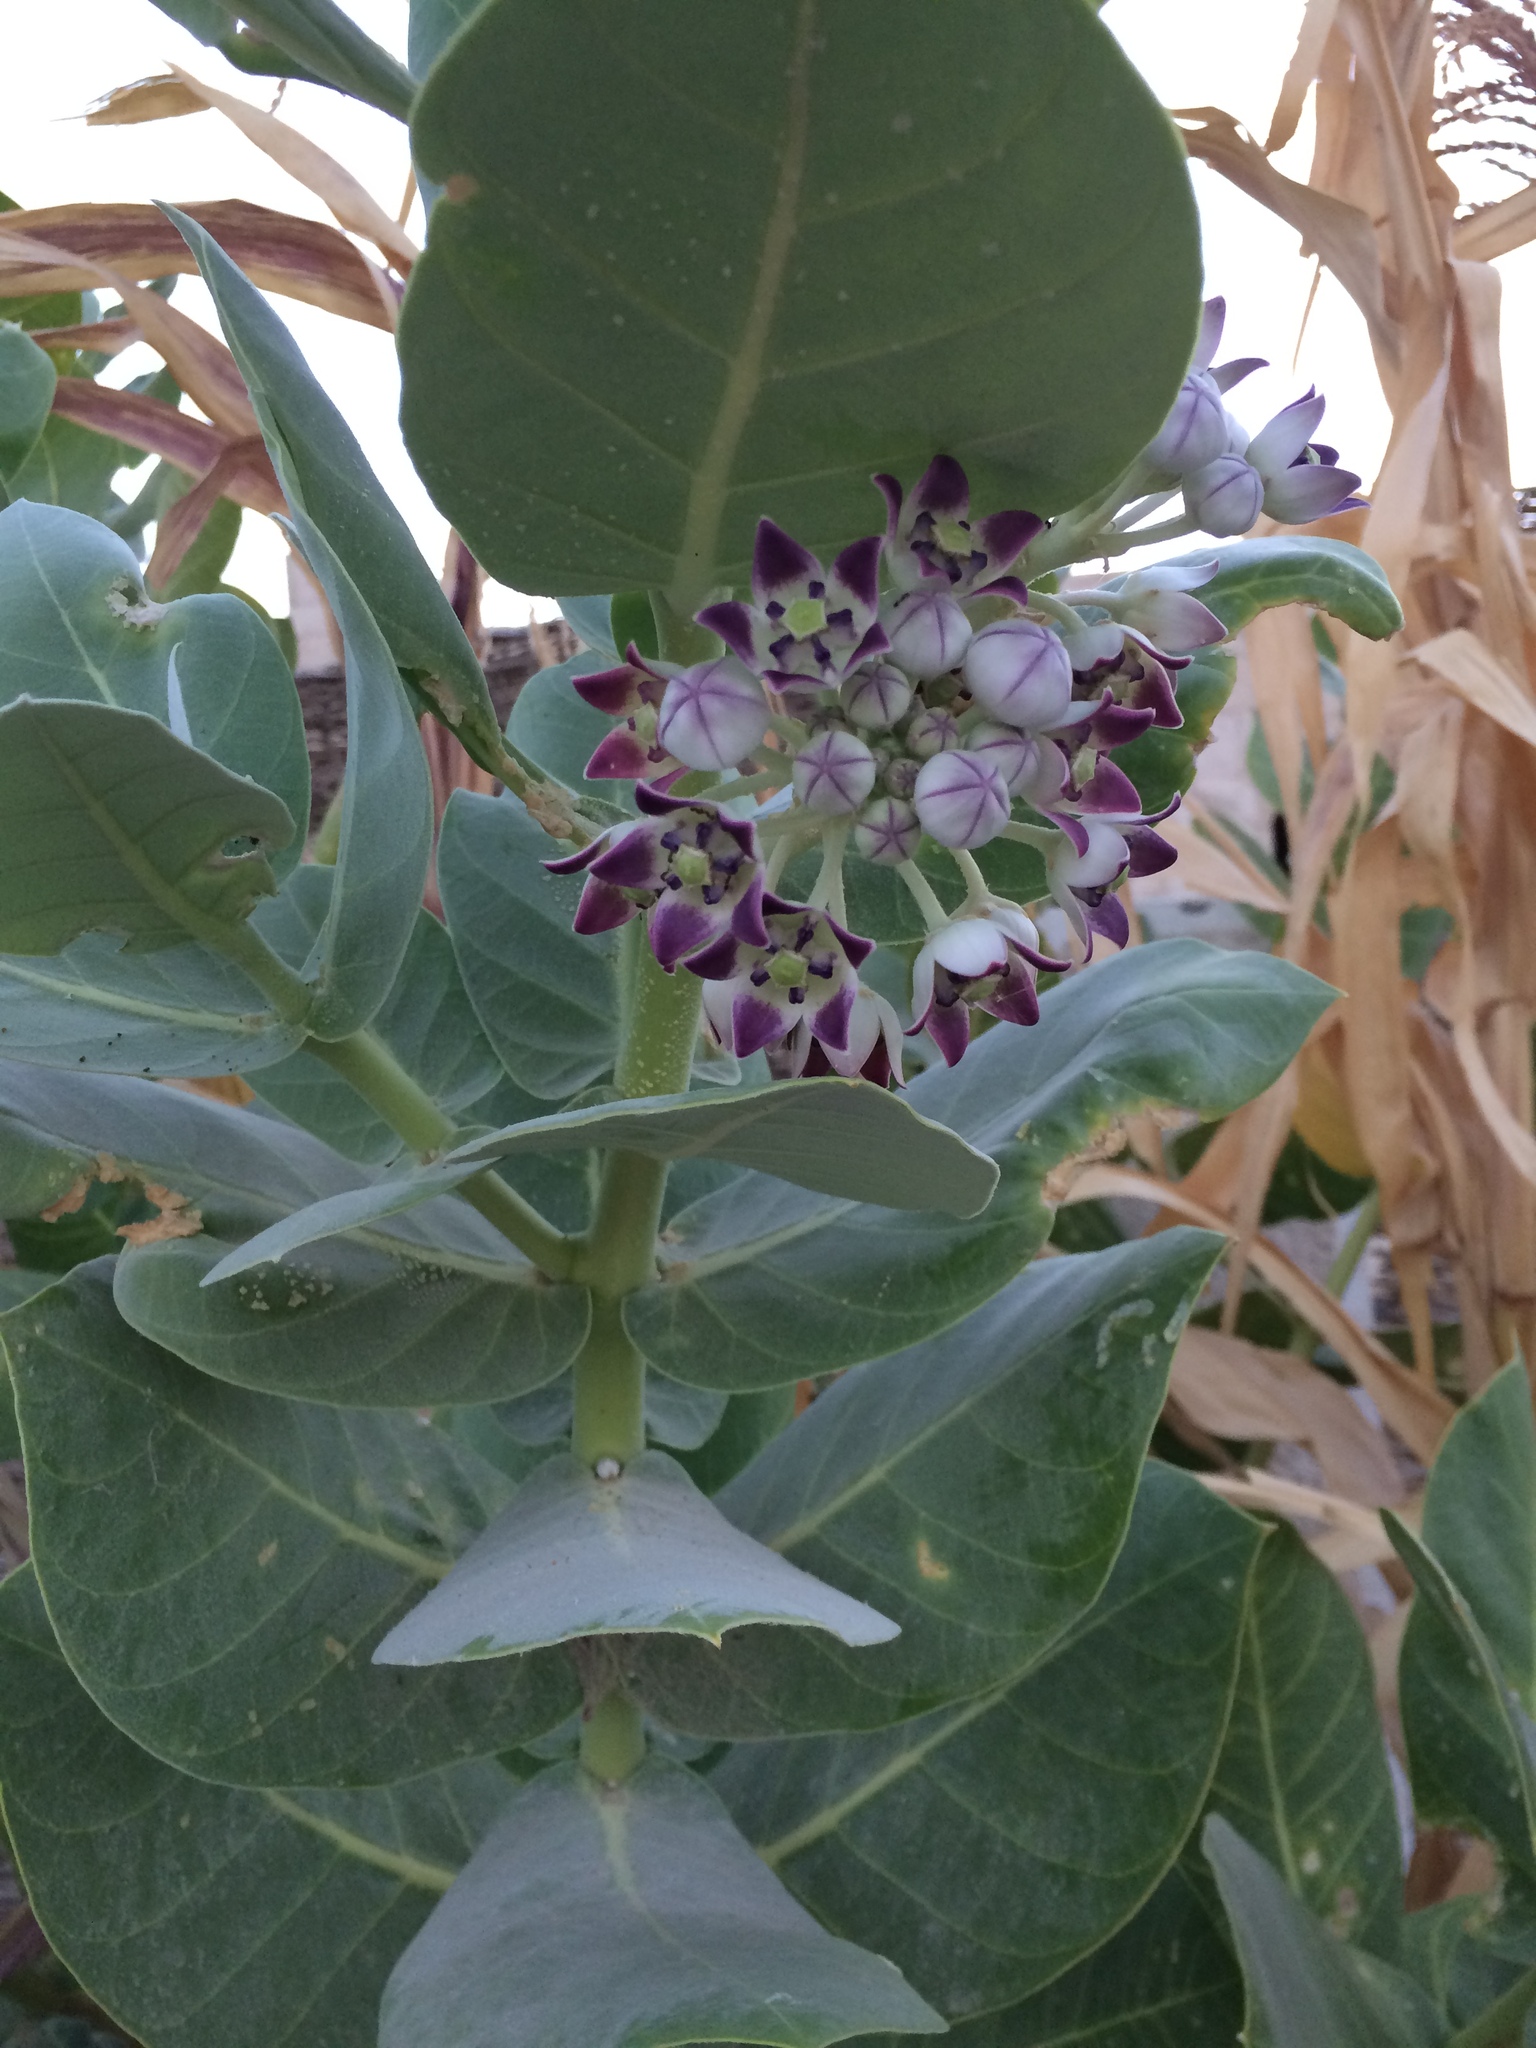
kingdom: Plantae
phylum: Tracheophyta
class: Magnoliopsida
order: Gentianales
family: Apocynaceae
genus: Calotropis
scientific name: Calotropis procera
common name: Roostertree
